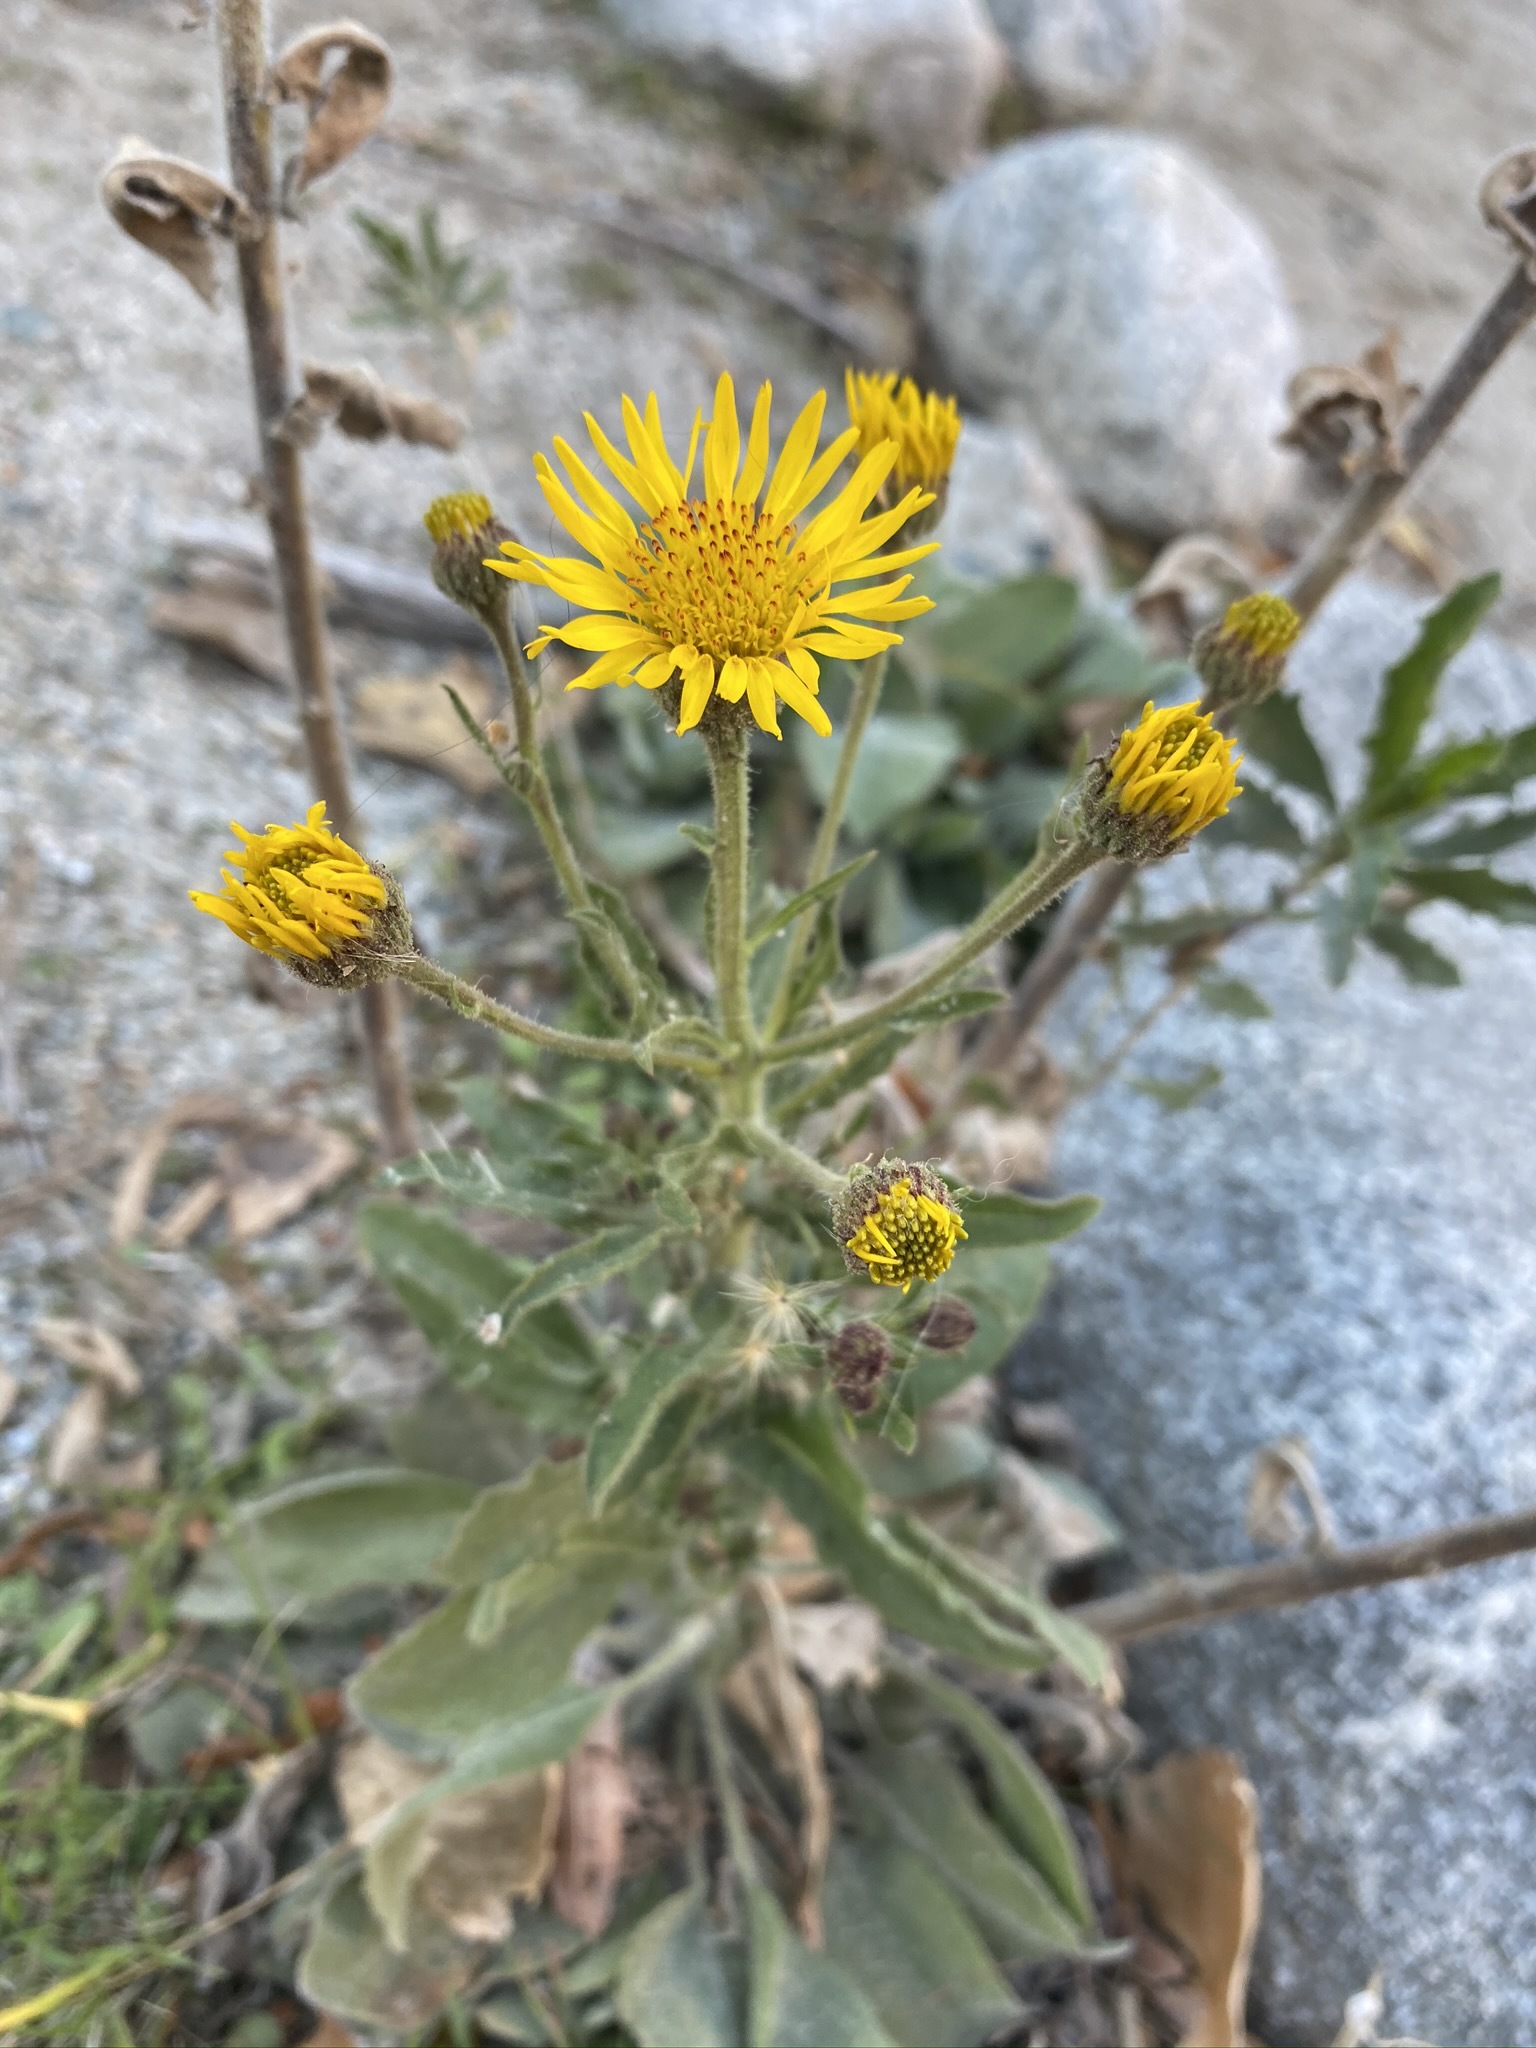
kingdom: Plantae
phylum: Tracheophyta
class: Magnoliopsida
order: Asterales
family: Asteraceae
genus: Heterotheca
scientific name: Heterotheca grandiflora
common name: Telegraphweed
